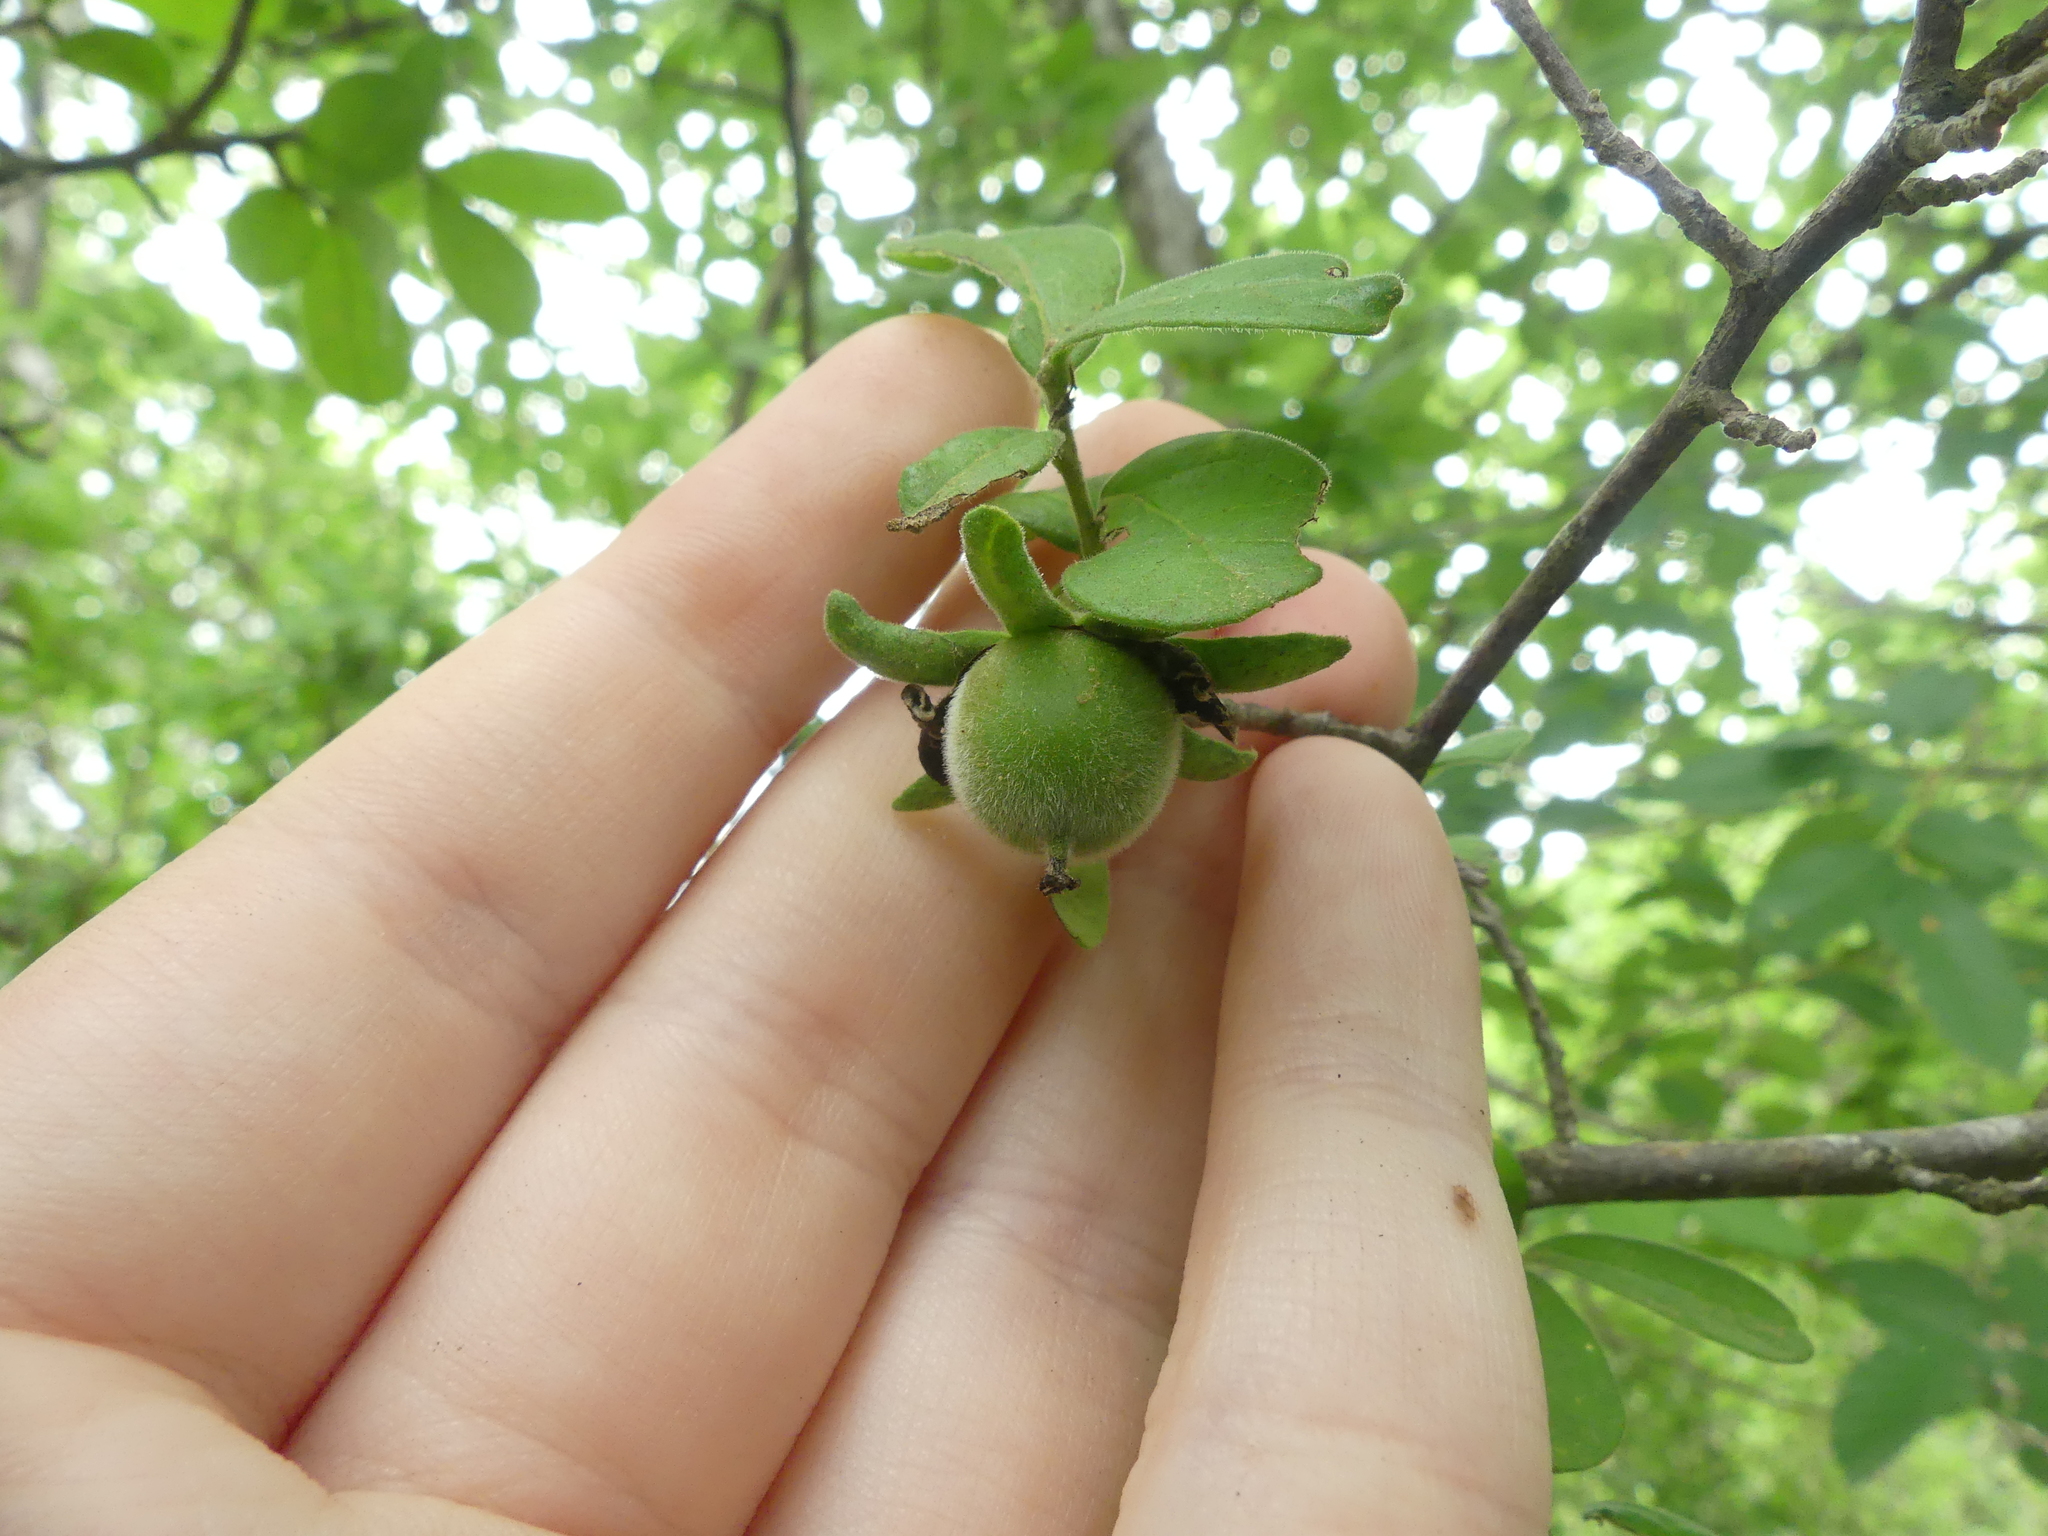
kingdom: Plantae
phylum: Tracheophyta
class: Magnoliopsida
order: Ericales
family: Ebenaceae
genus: Diospyros
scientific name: Diospyros texana
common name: Texas persimmon
